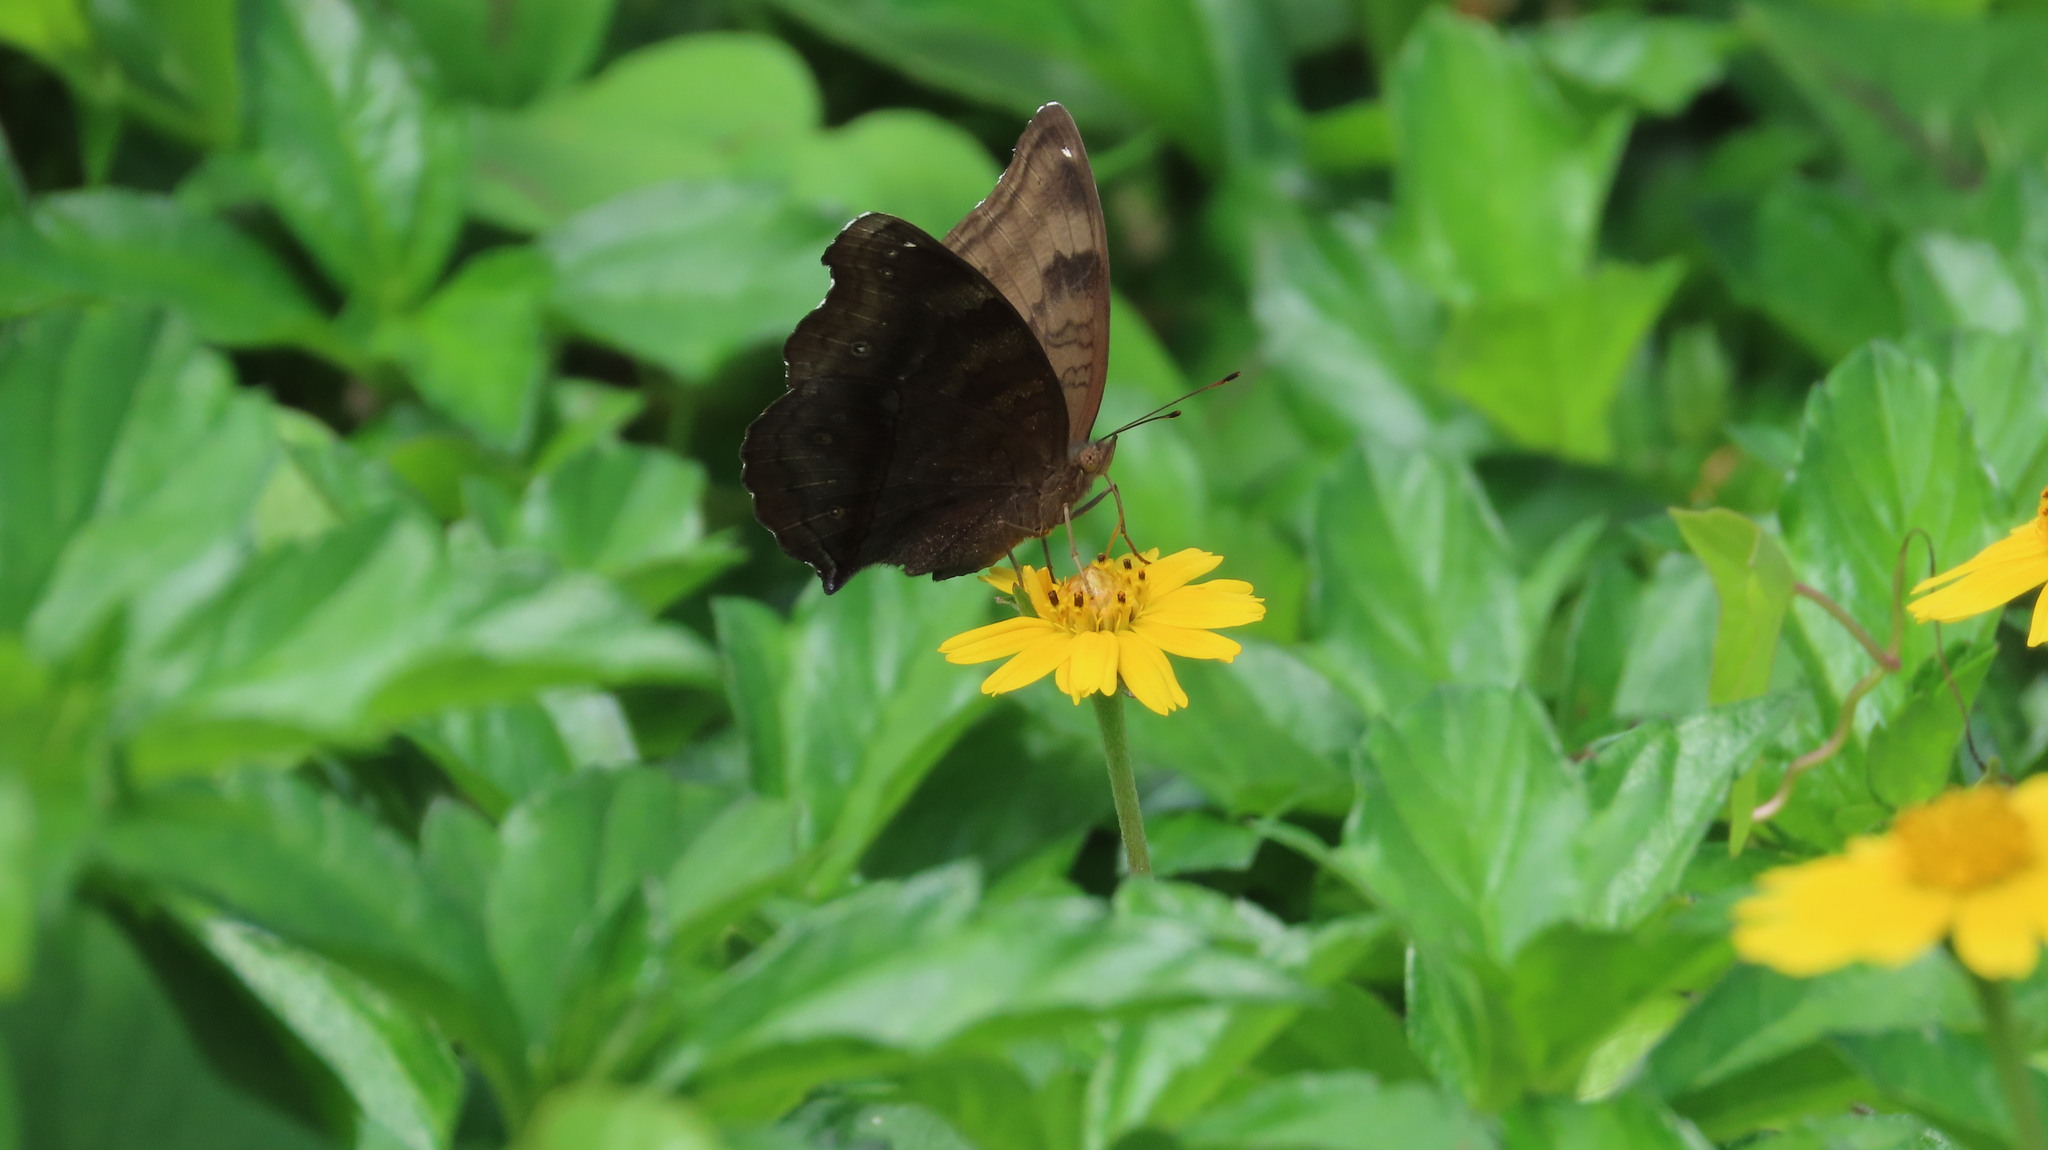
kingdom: Animalia
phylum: Arthropoda
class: Insecta
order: Lepidoptera
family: Nymphalidae
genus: Junonia
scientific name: Junonia iphita
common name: Chocolate pansy
